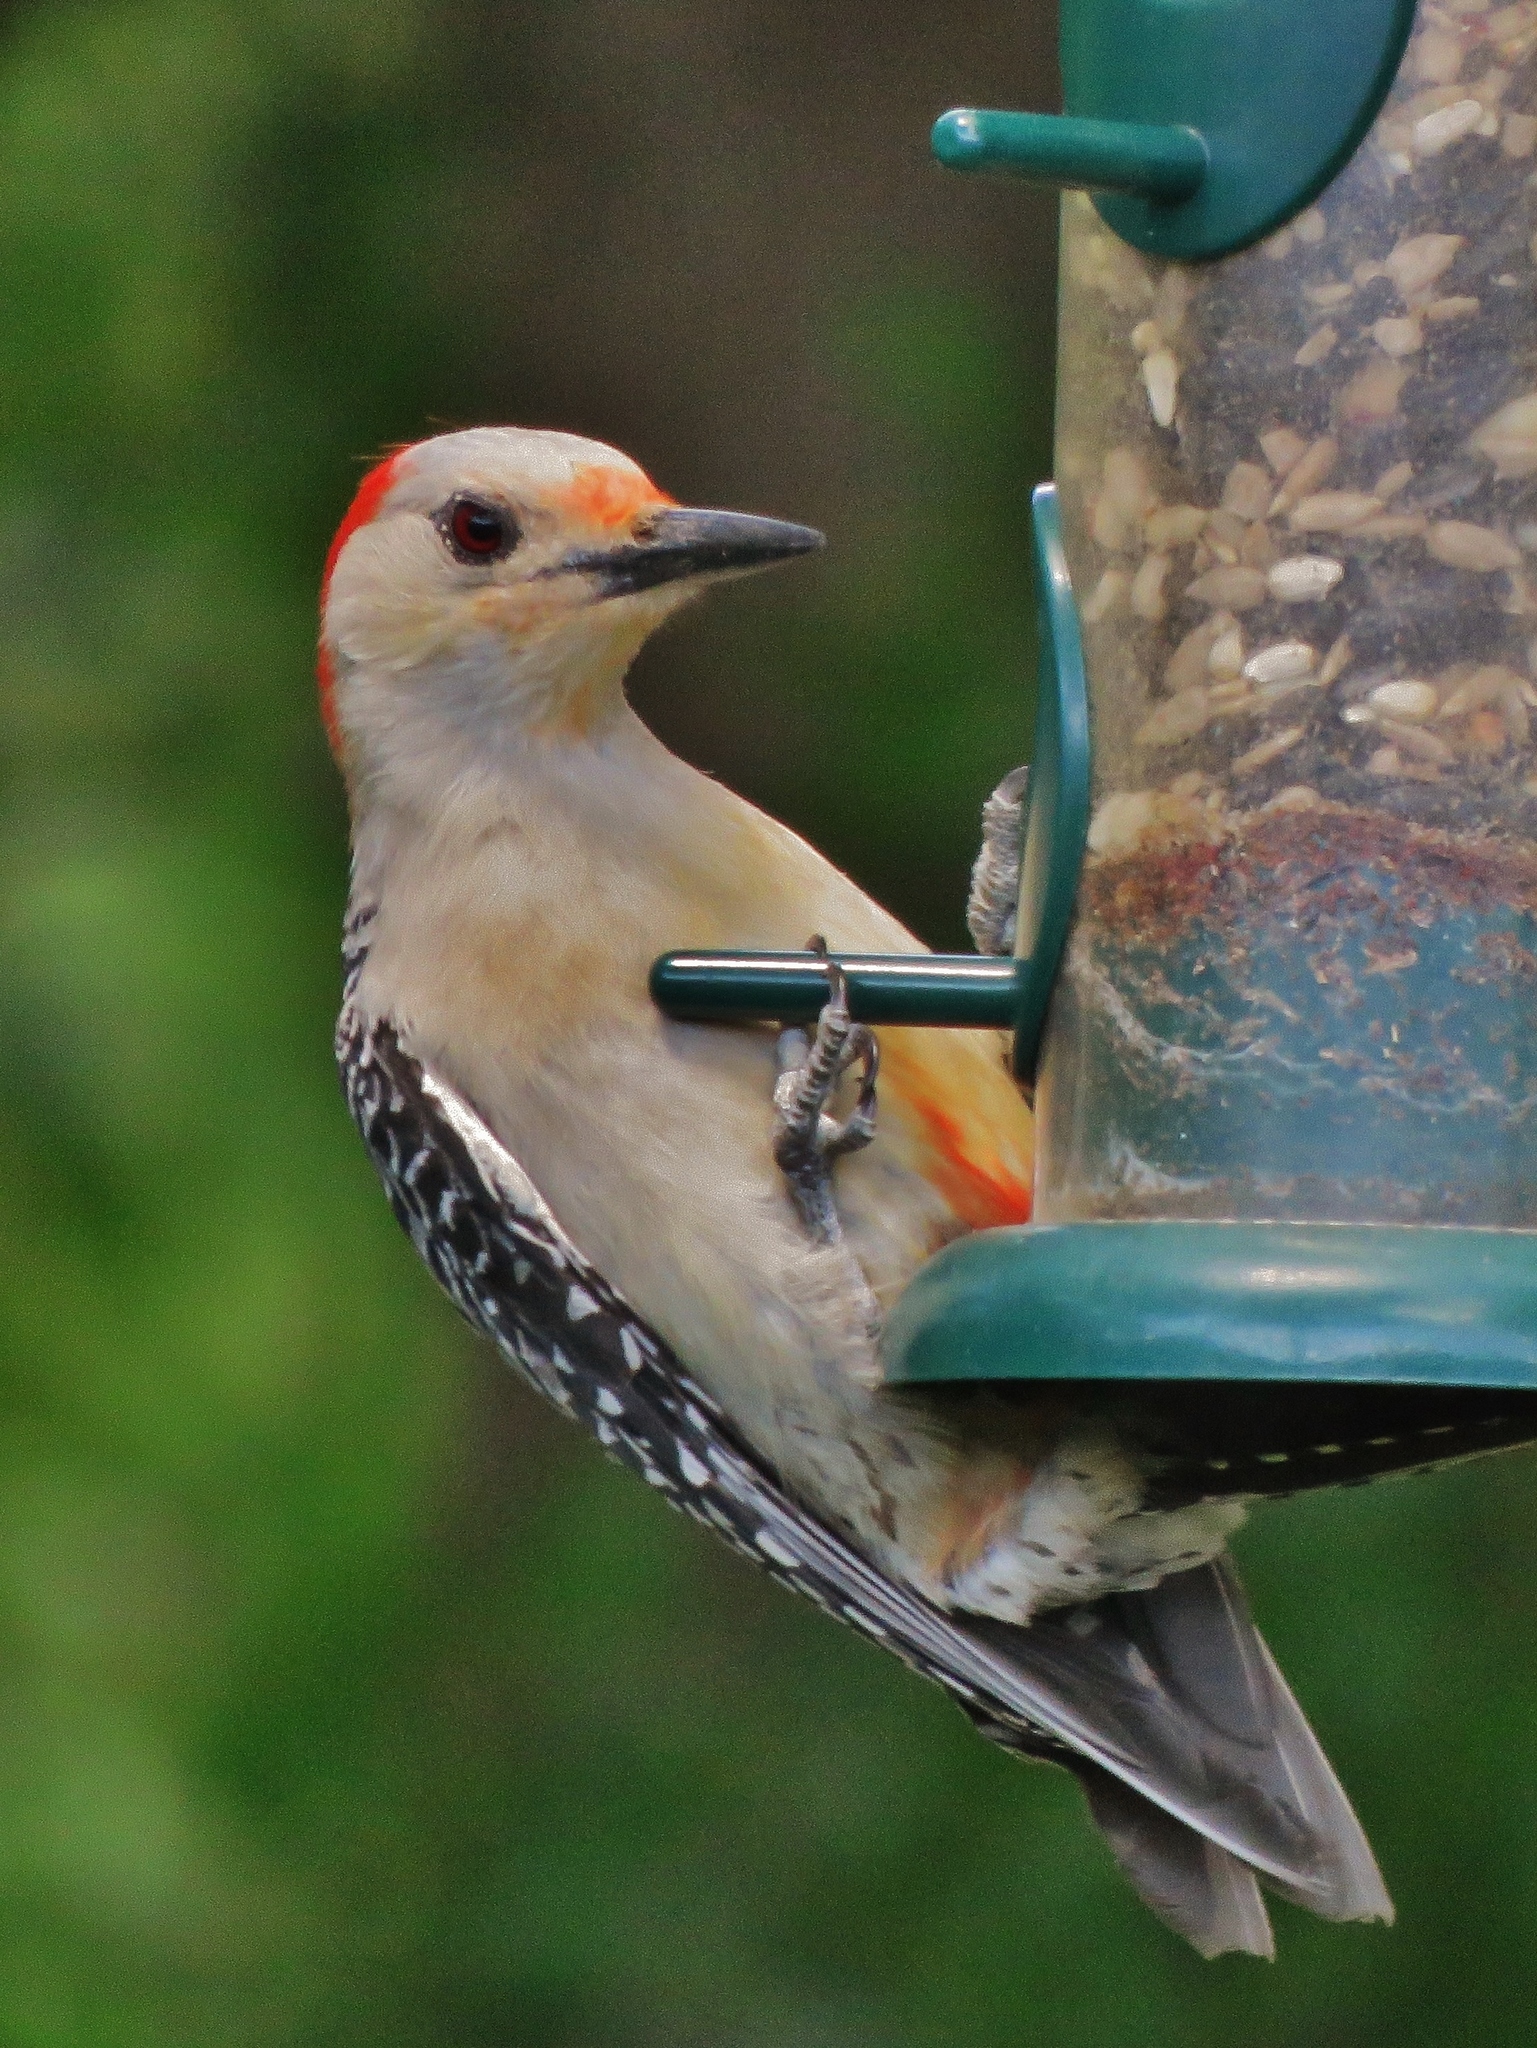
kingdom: Animalia
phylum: Chordata
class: Aves
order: Piciformes
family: Picidae
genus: Melanerpes
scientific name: Melanerpes carolinus
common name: Red-bellied woodpecker
